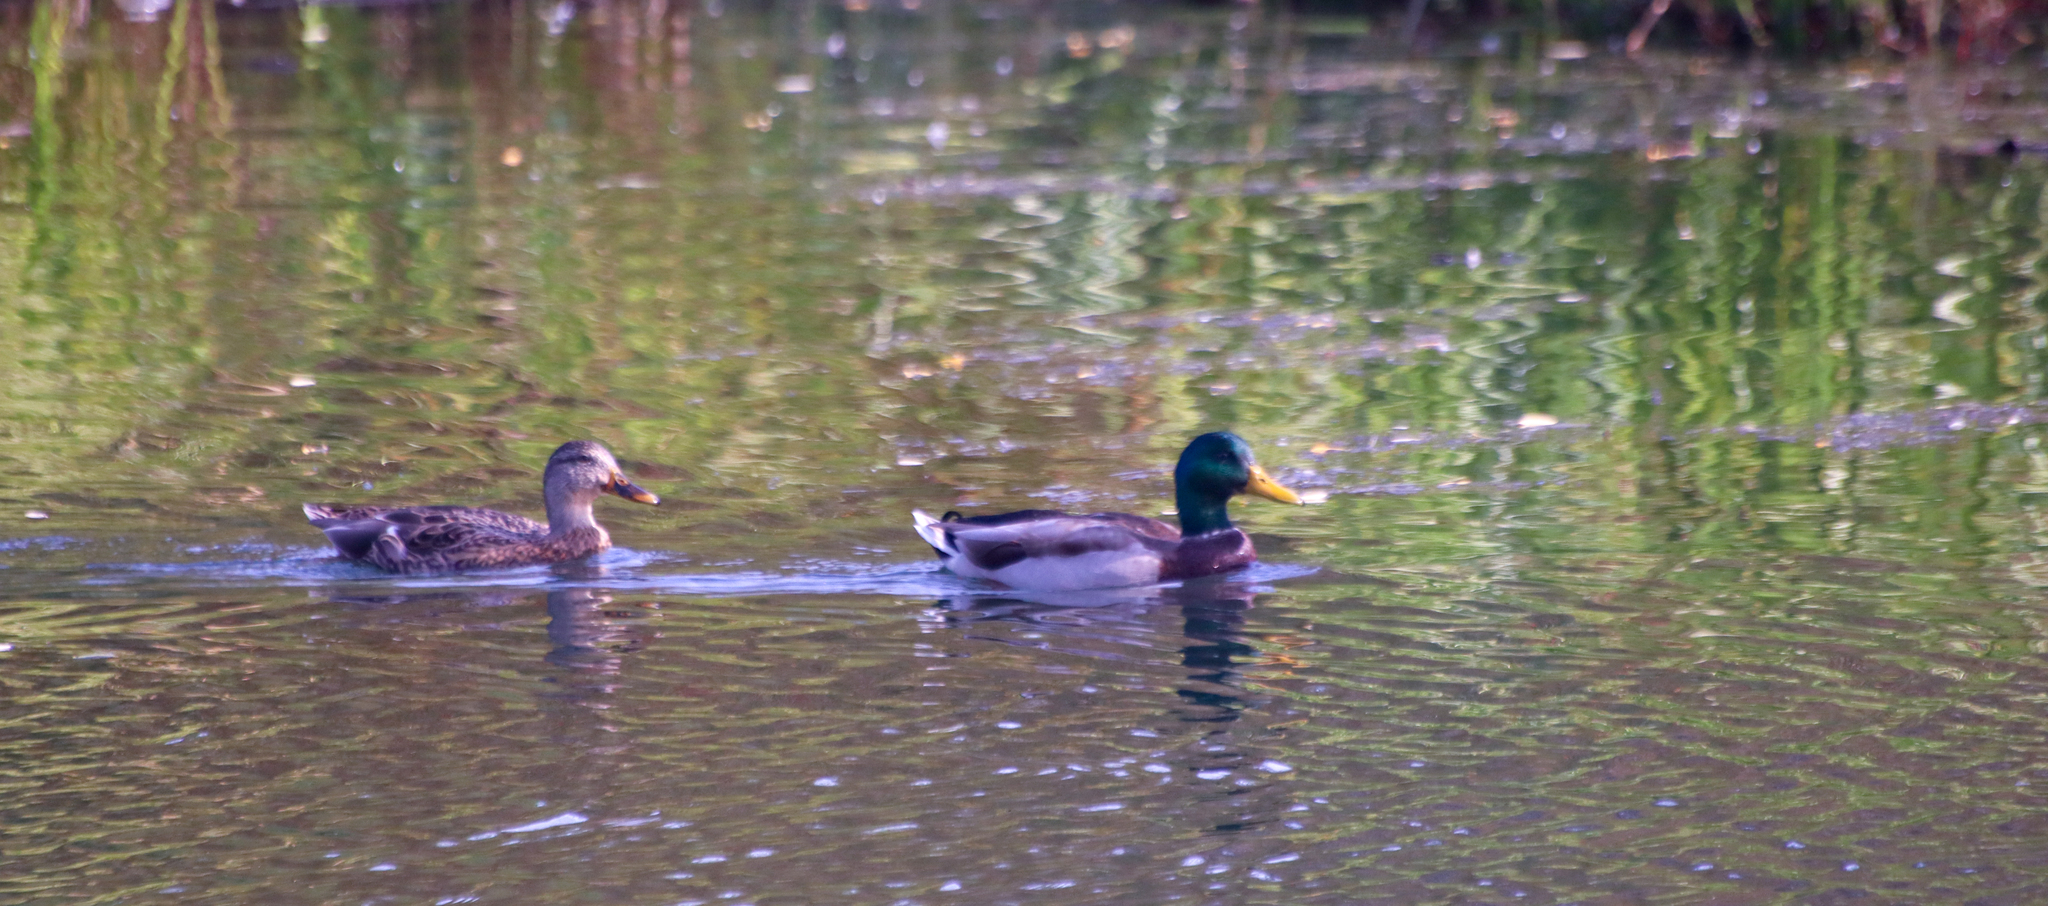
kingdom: Animalia
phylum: Chordata
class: Aves
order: Anseriformes
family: Anatidae
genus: Anas
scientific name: Anas platyrhynchos
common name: Mallard
